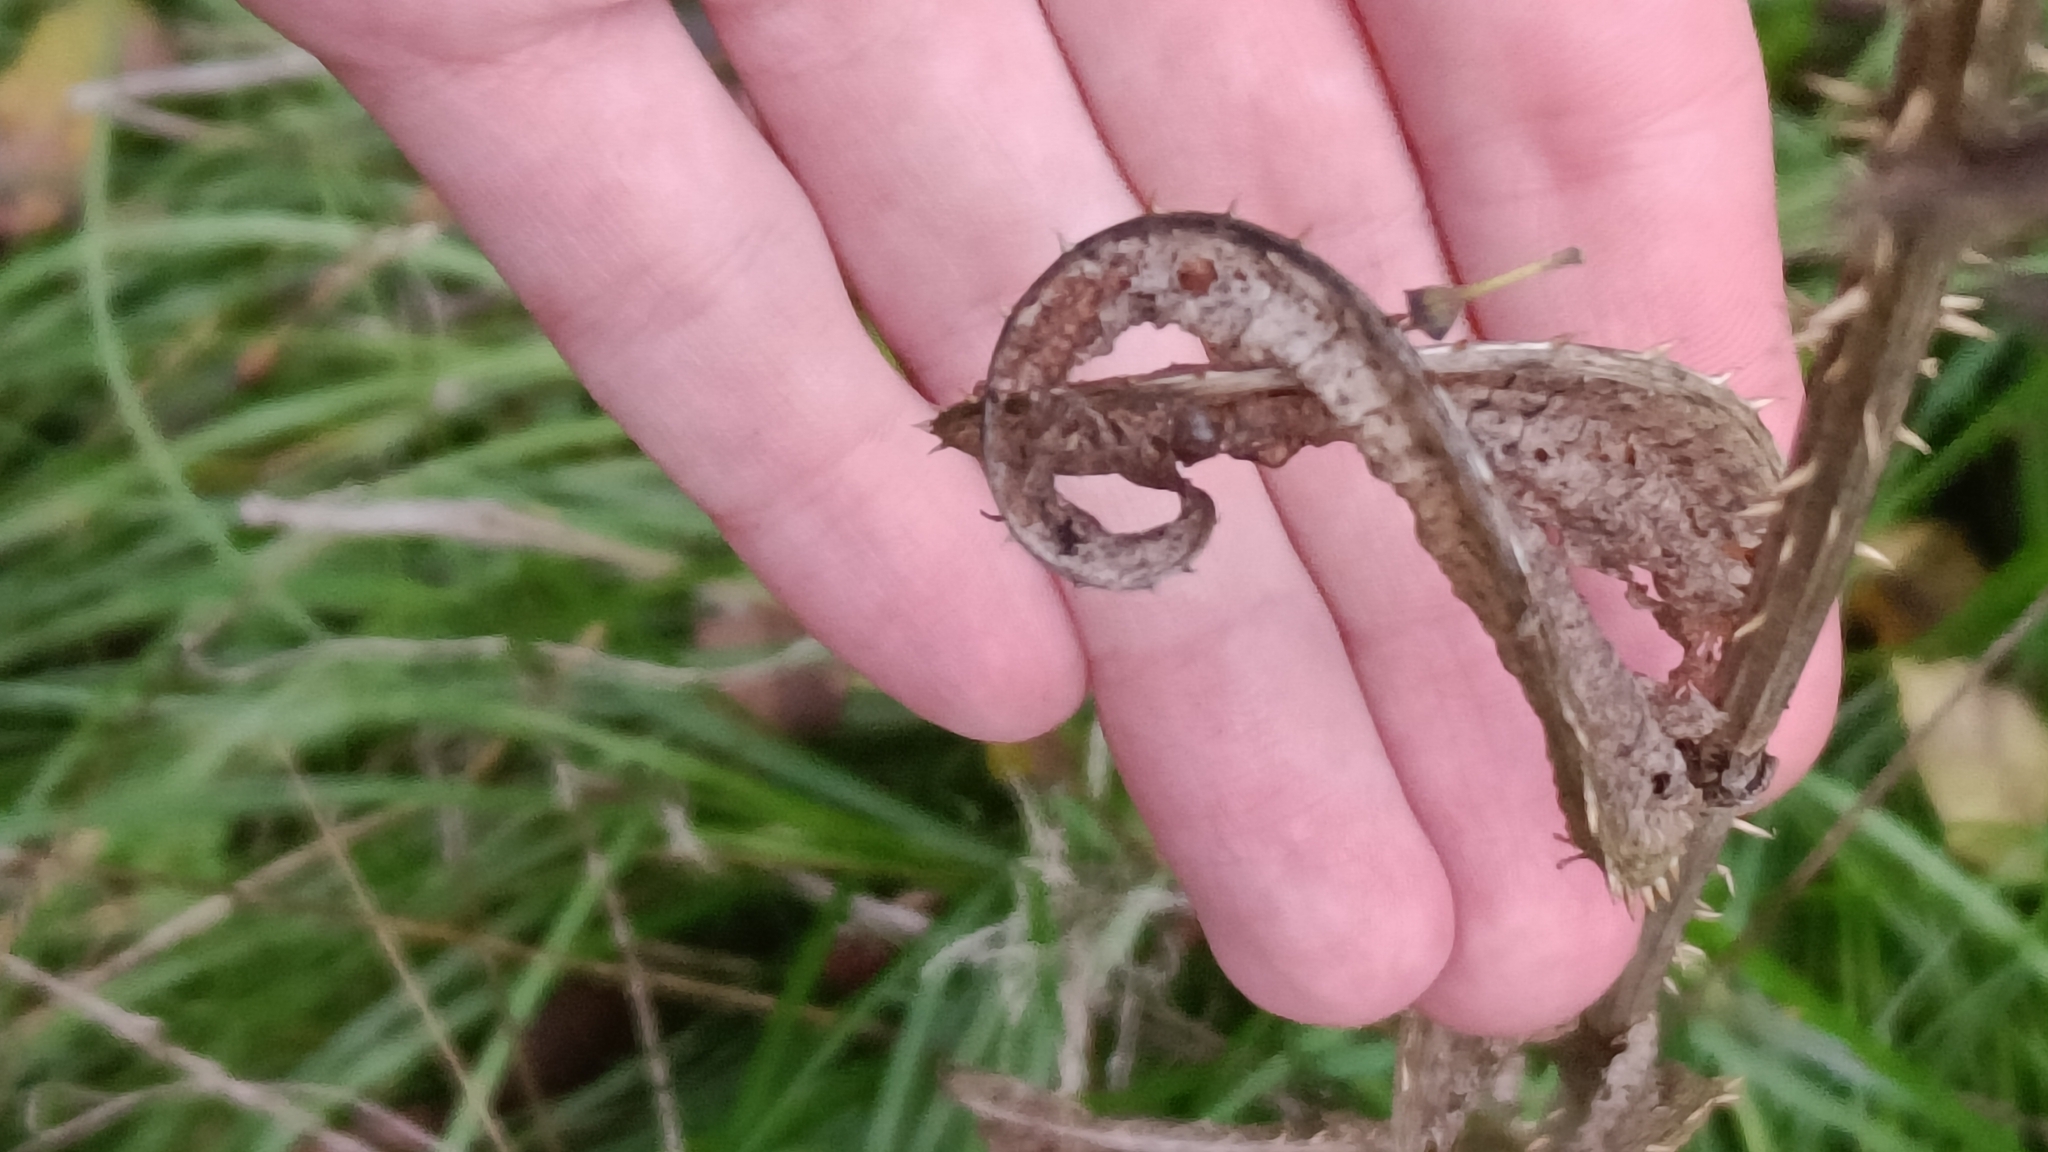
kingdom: Plantae
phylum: Tracheophyta
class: Magnoliopsida
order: Dipsacales
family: Caprifoliaceae
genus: Dipsacus
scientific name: Dipsacus fullonum
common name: Teasel
